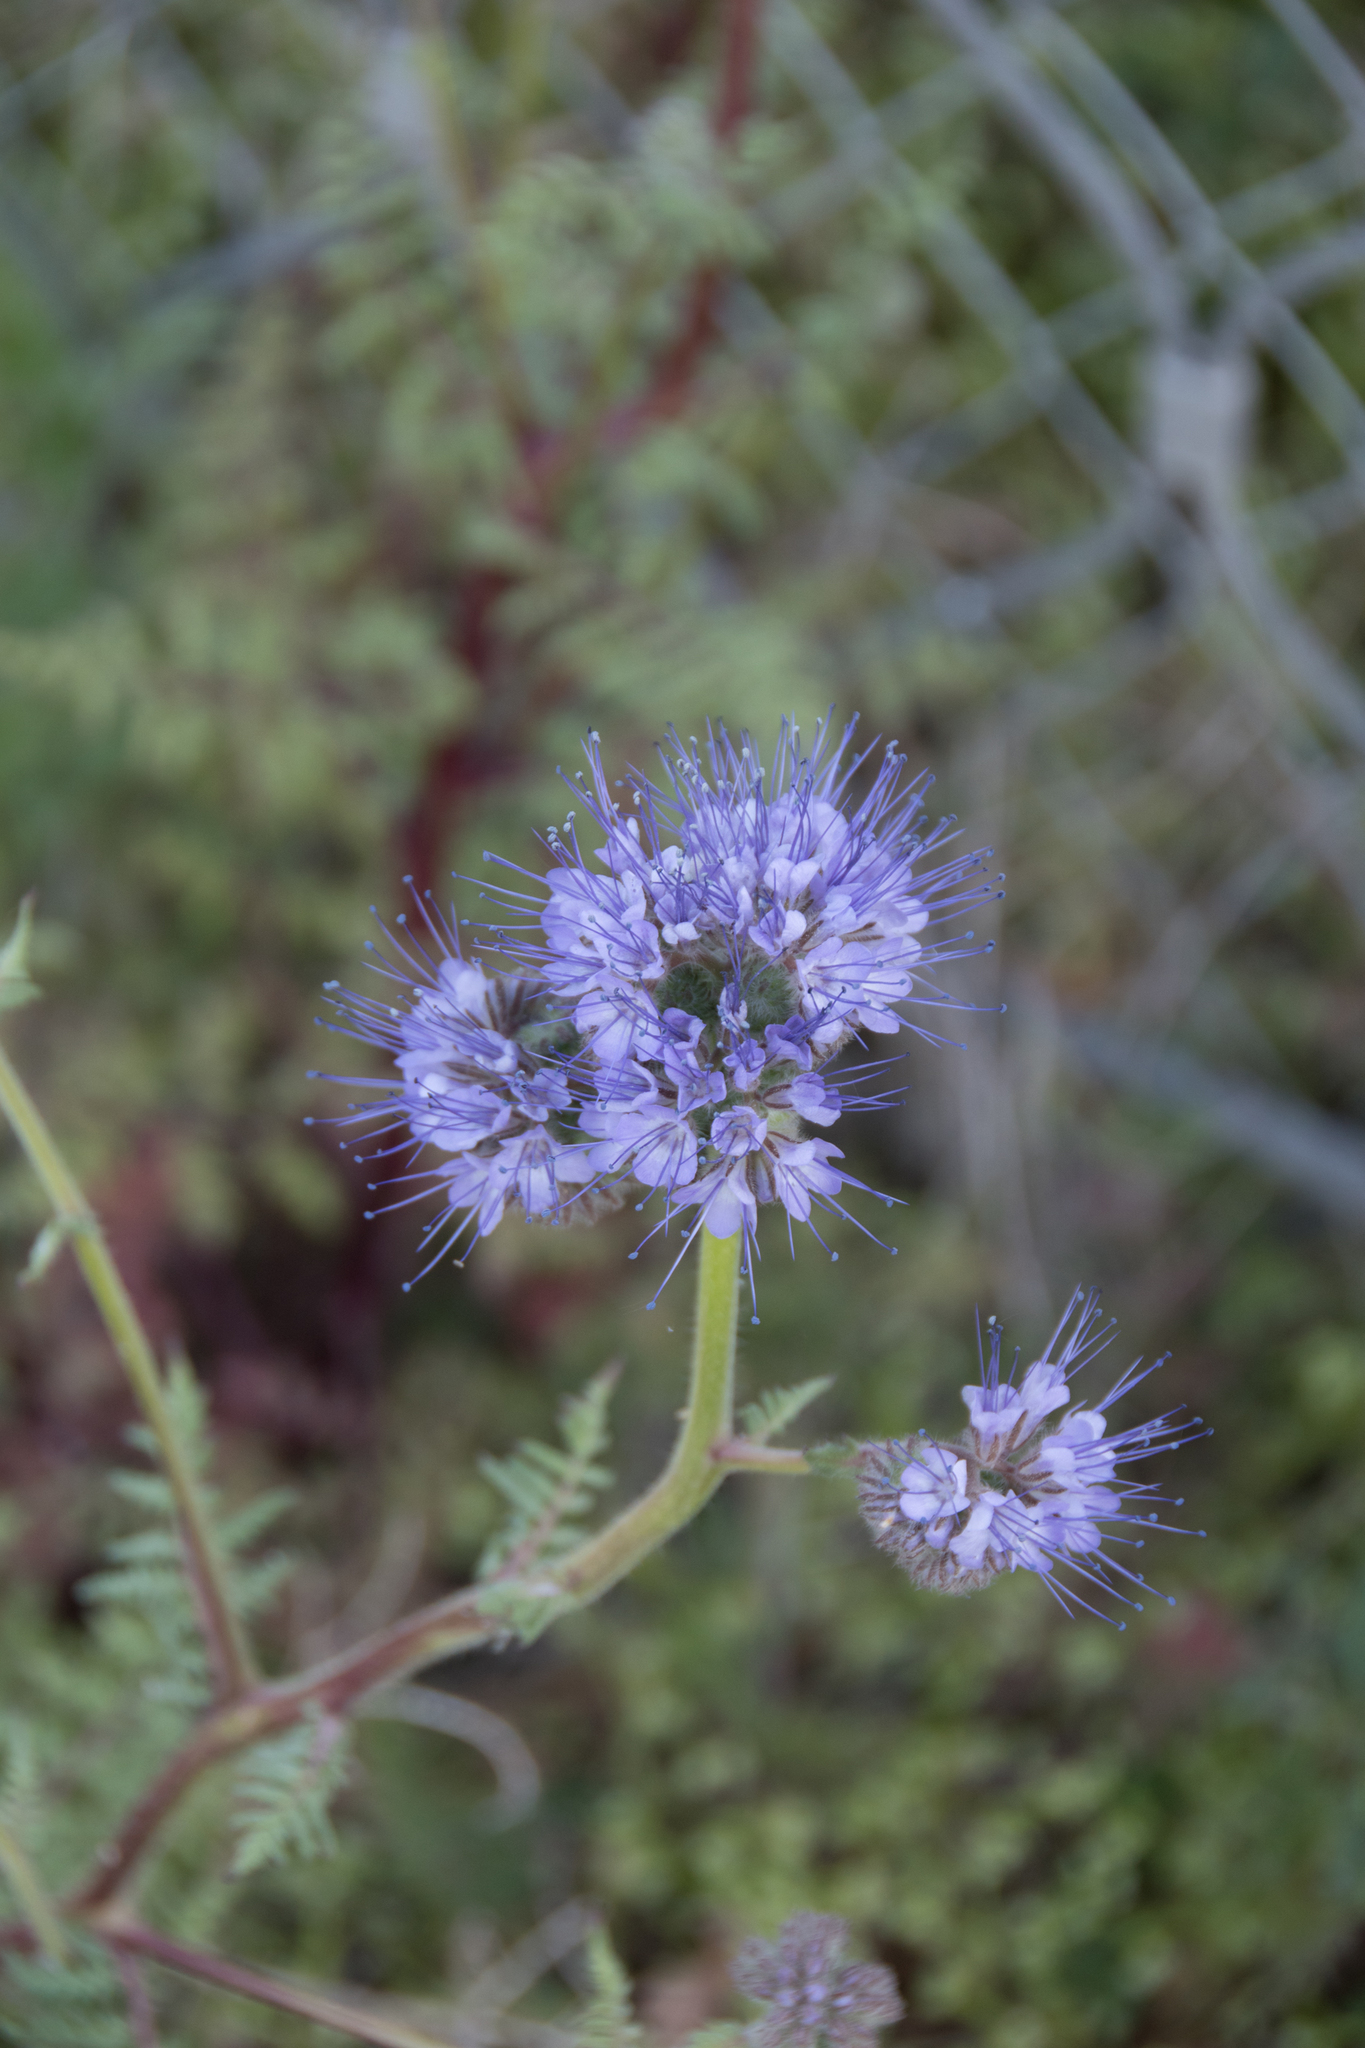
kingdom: Plantae
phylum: Tracheophyta
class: Magnoliopsida
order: Boraginales
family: Hydrophyllaceae
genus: Phacelia
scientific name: Phacelia tanacetifolia
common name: Phacelia
